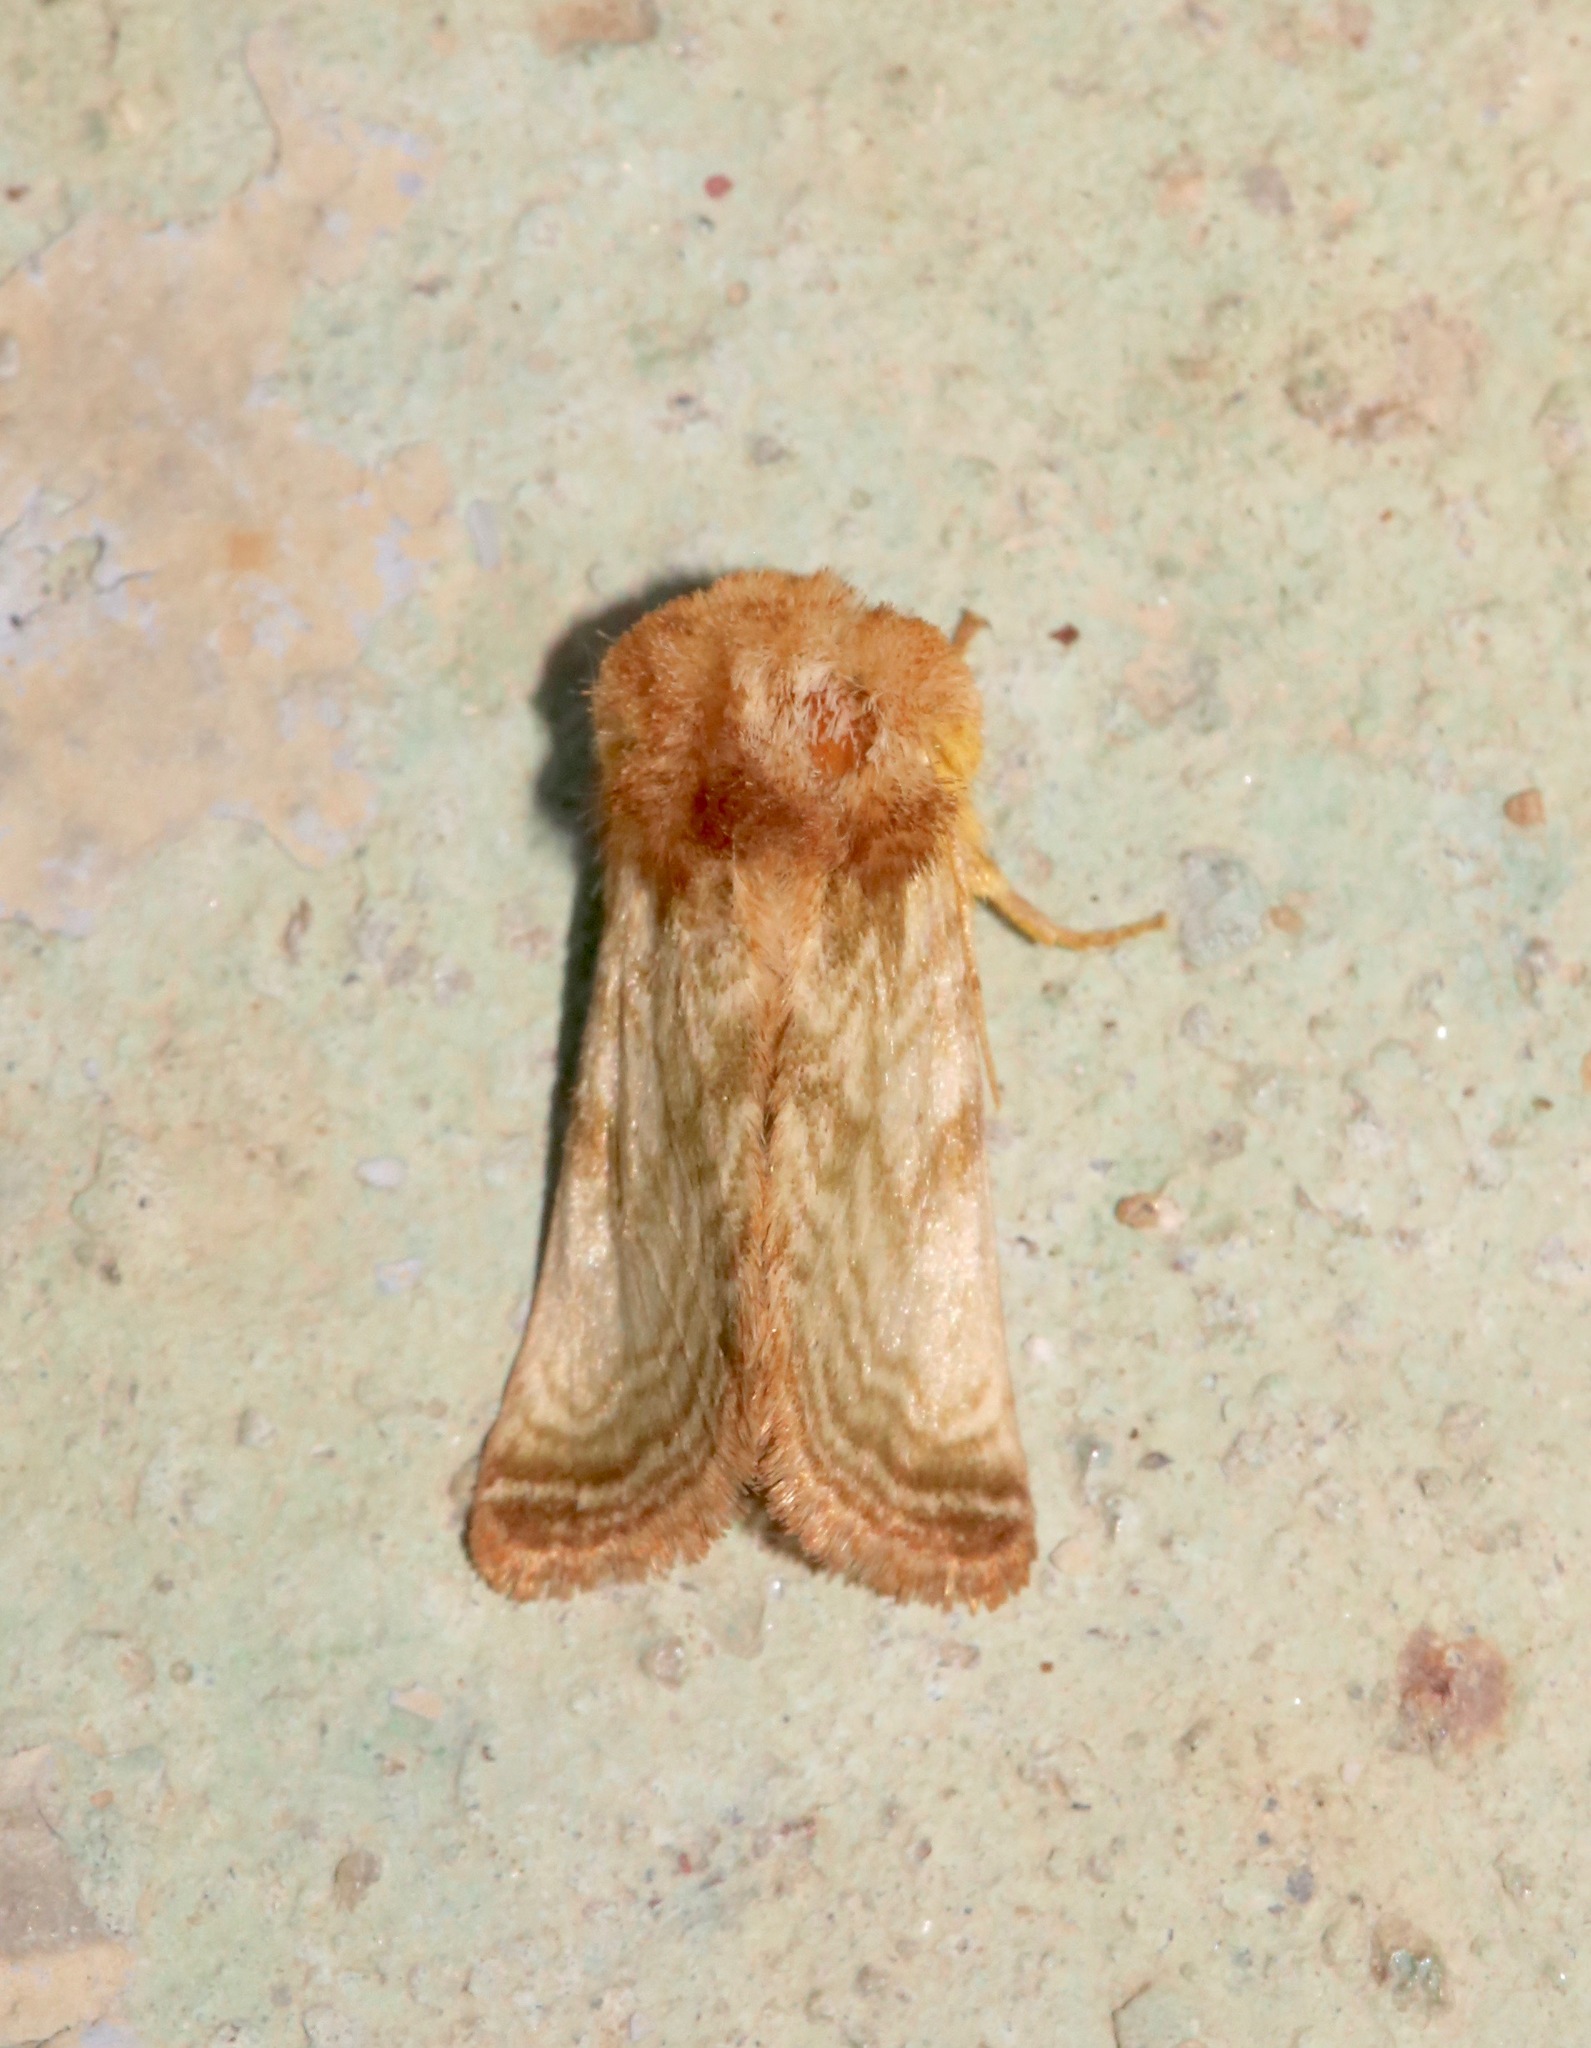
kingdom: Animalia
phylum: Arthropoda
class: Insecta
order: Lepidoptera
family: Noctuidae
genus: Nocloa
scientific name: Nocloa rivulosa
